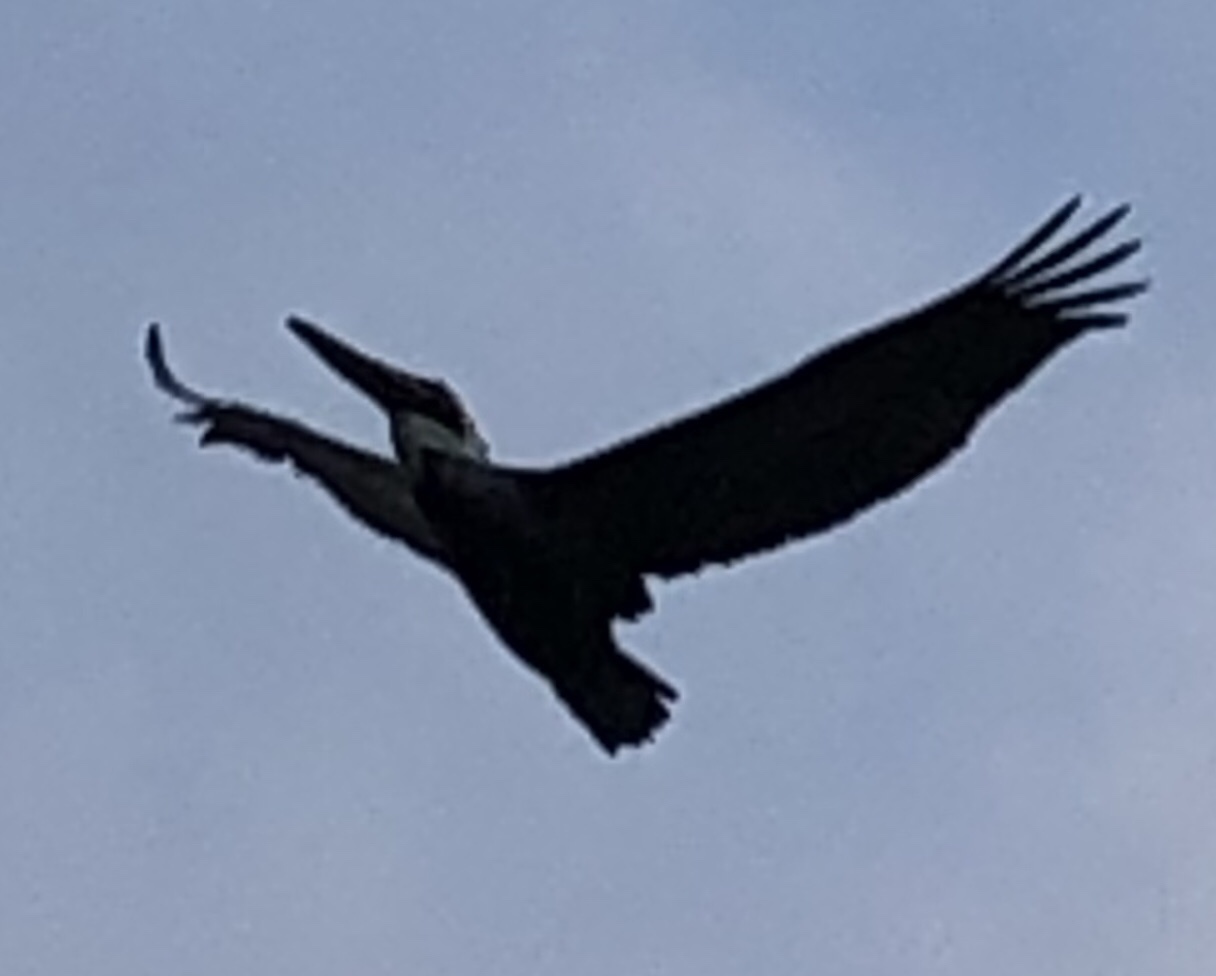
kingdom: Animalia
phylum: Chordata
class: Aves
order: Pelecaniformes
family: Pelecanidae
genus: Pelecanus
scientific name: Pelecanus occidentalis
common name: Brown pelican
